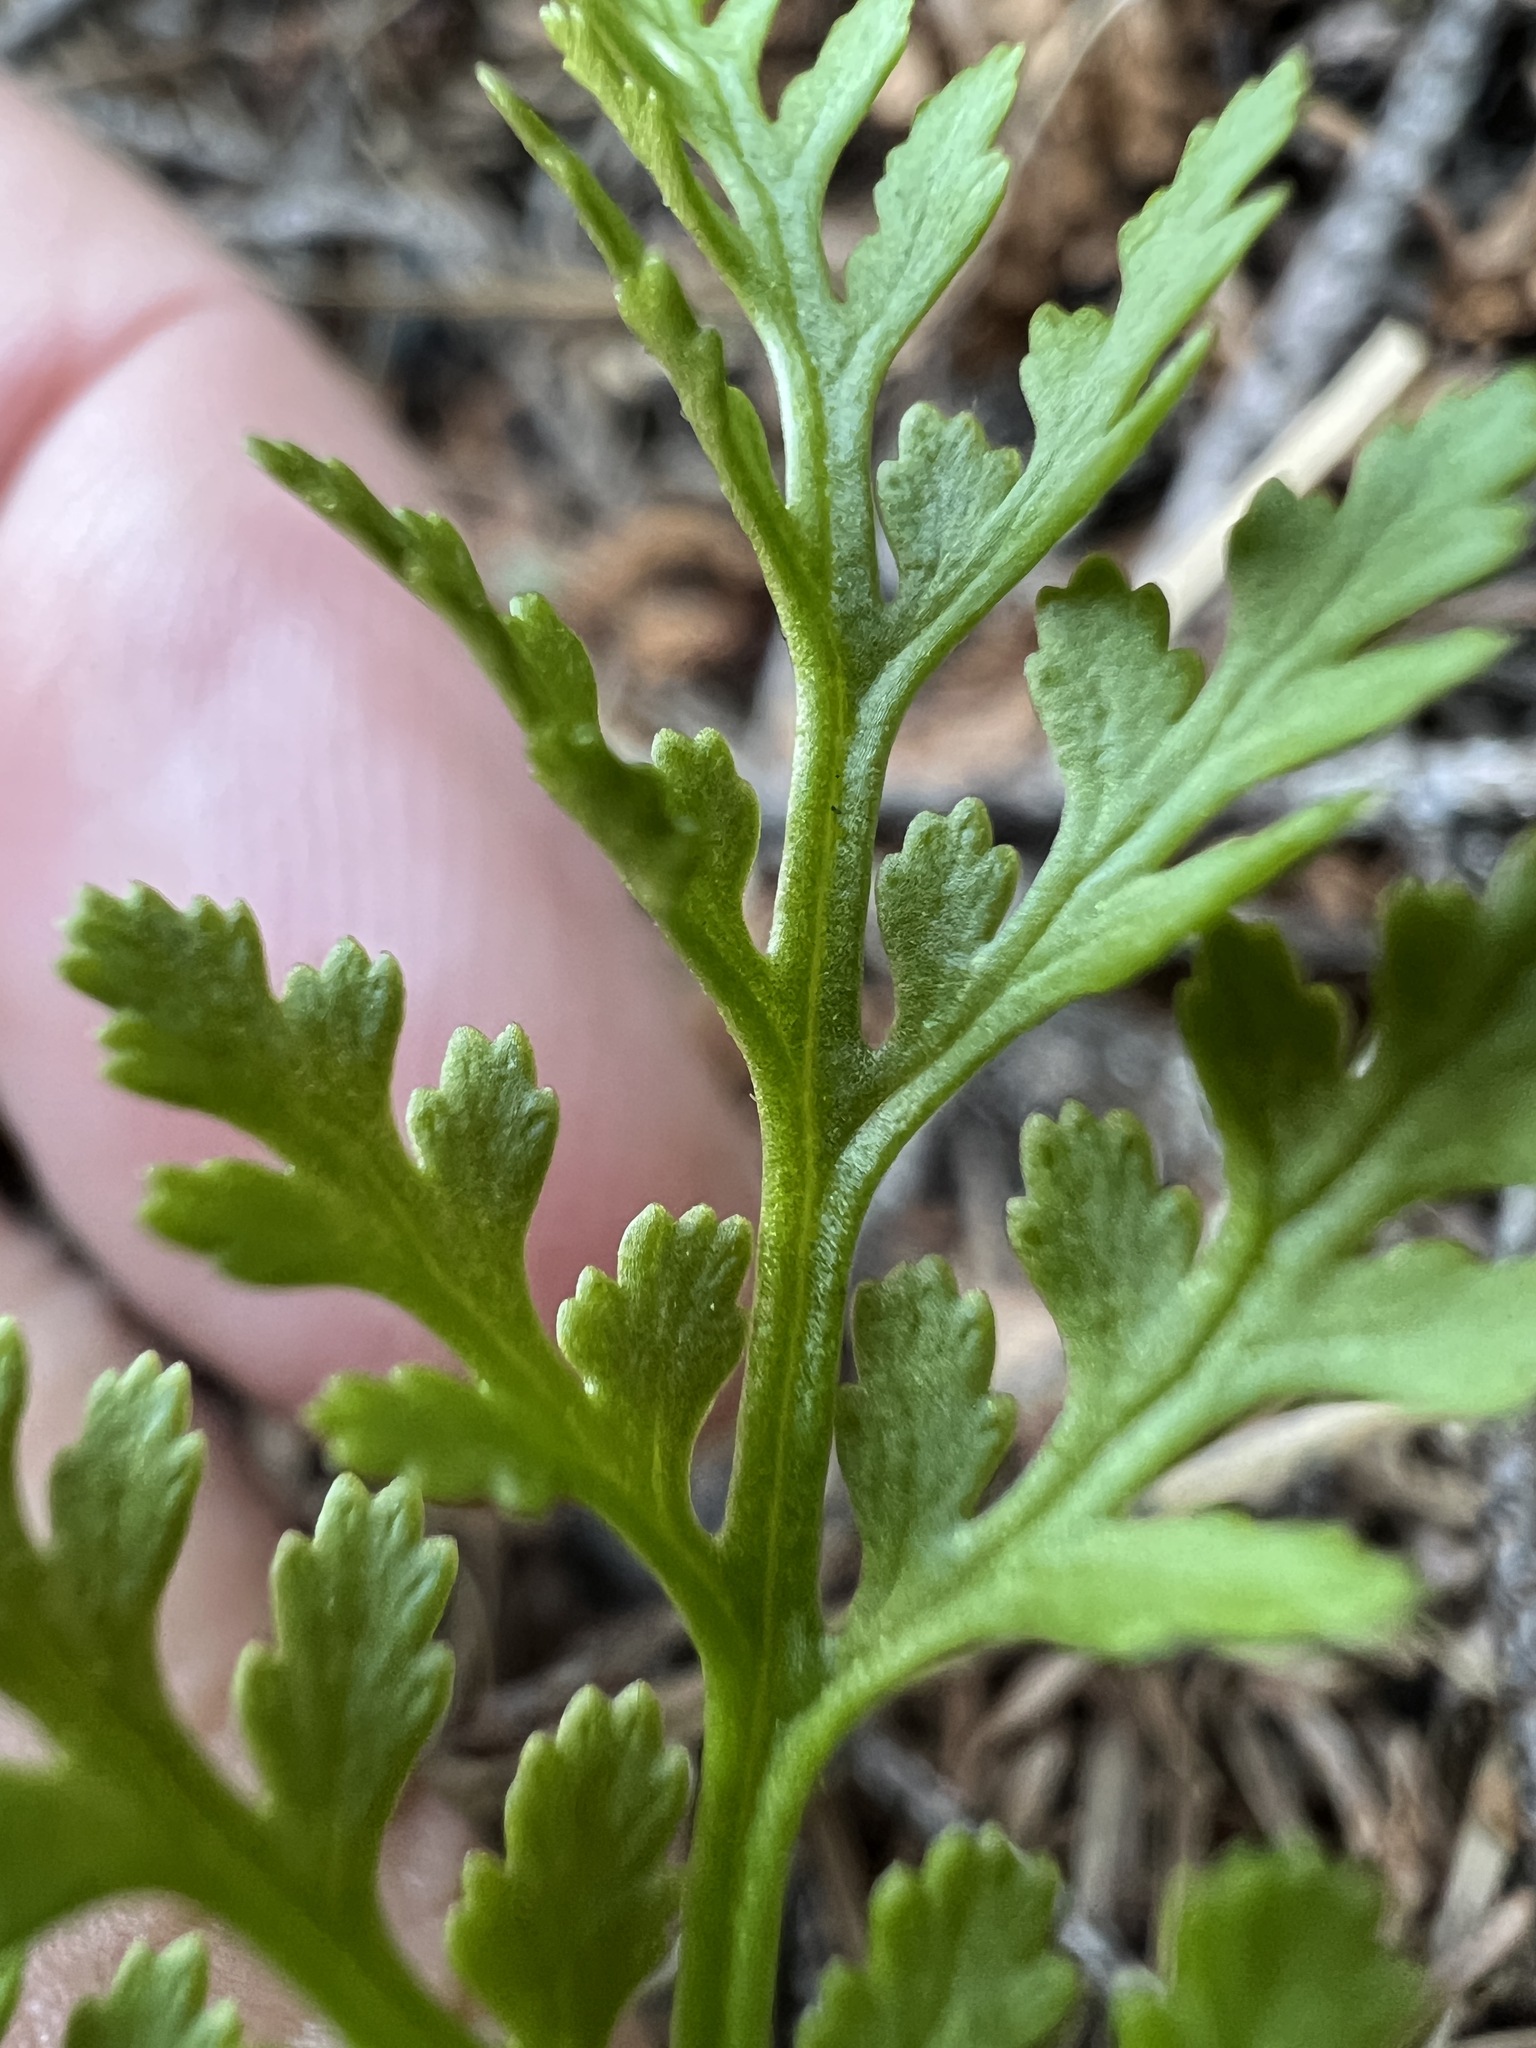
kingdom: Plantae
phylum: Tracheophyta
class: Polypodiopsida
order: Polypodiales
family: Pteridaceae
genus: Cryptogramma
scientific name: Cryptogramma acrostichoides
